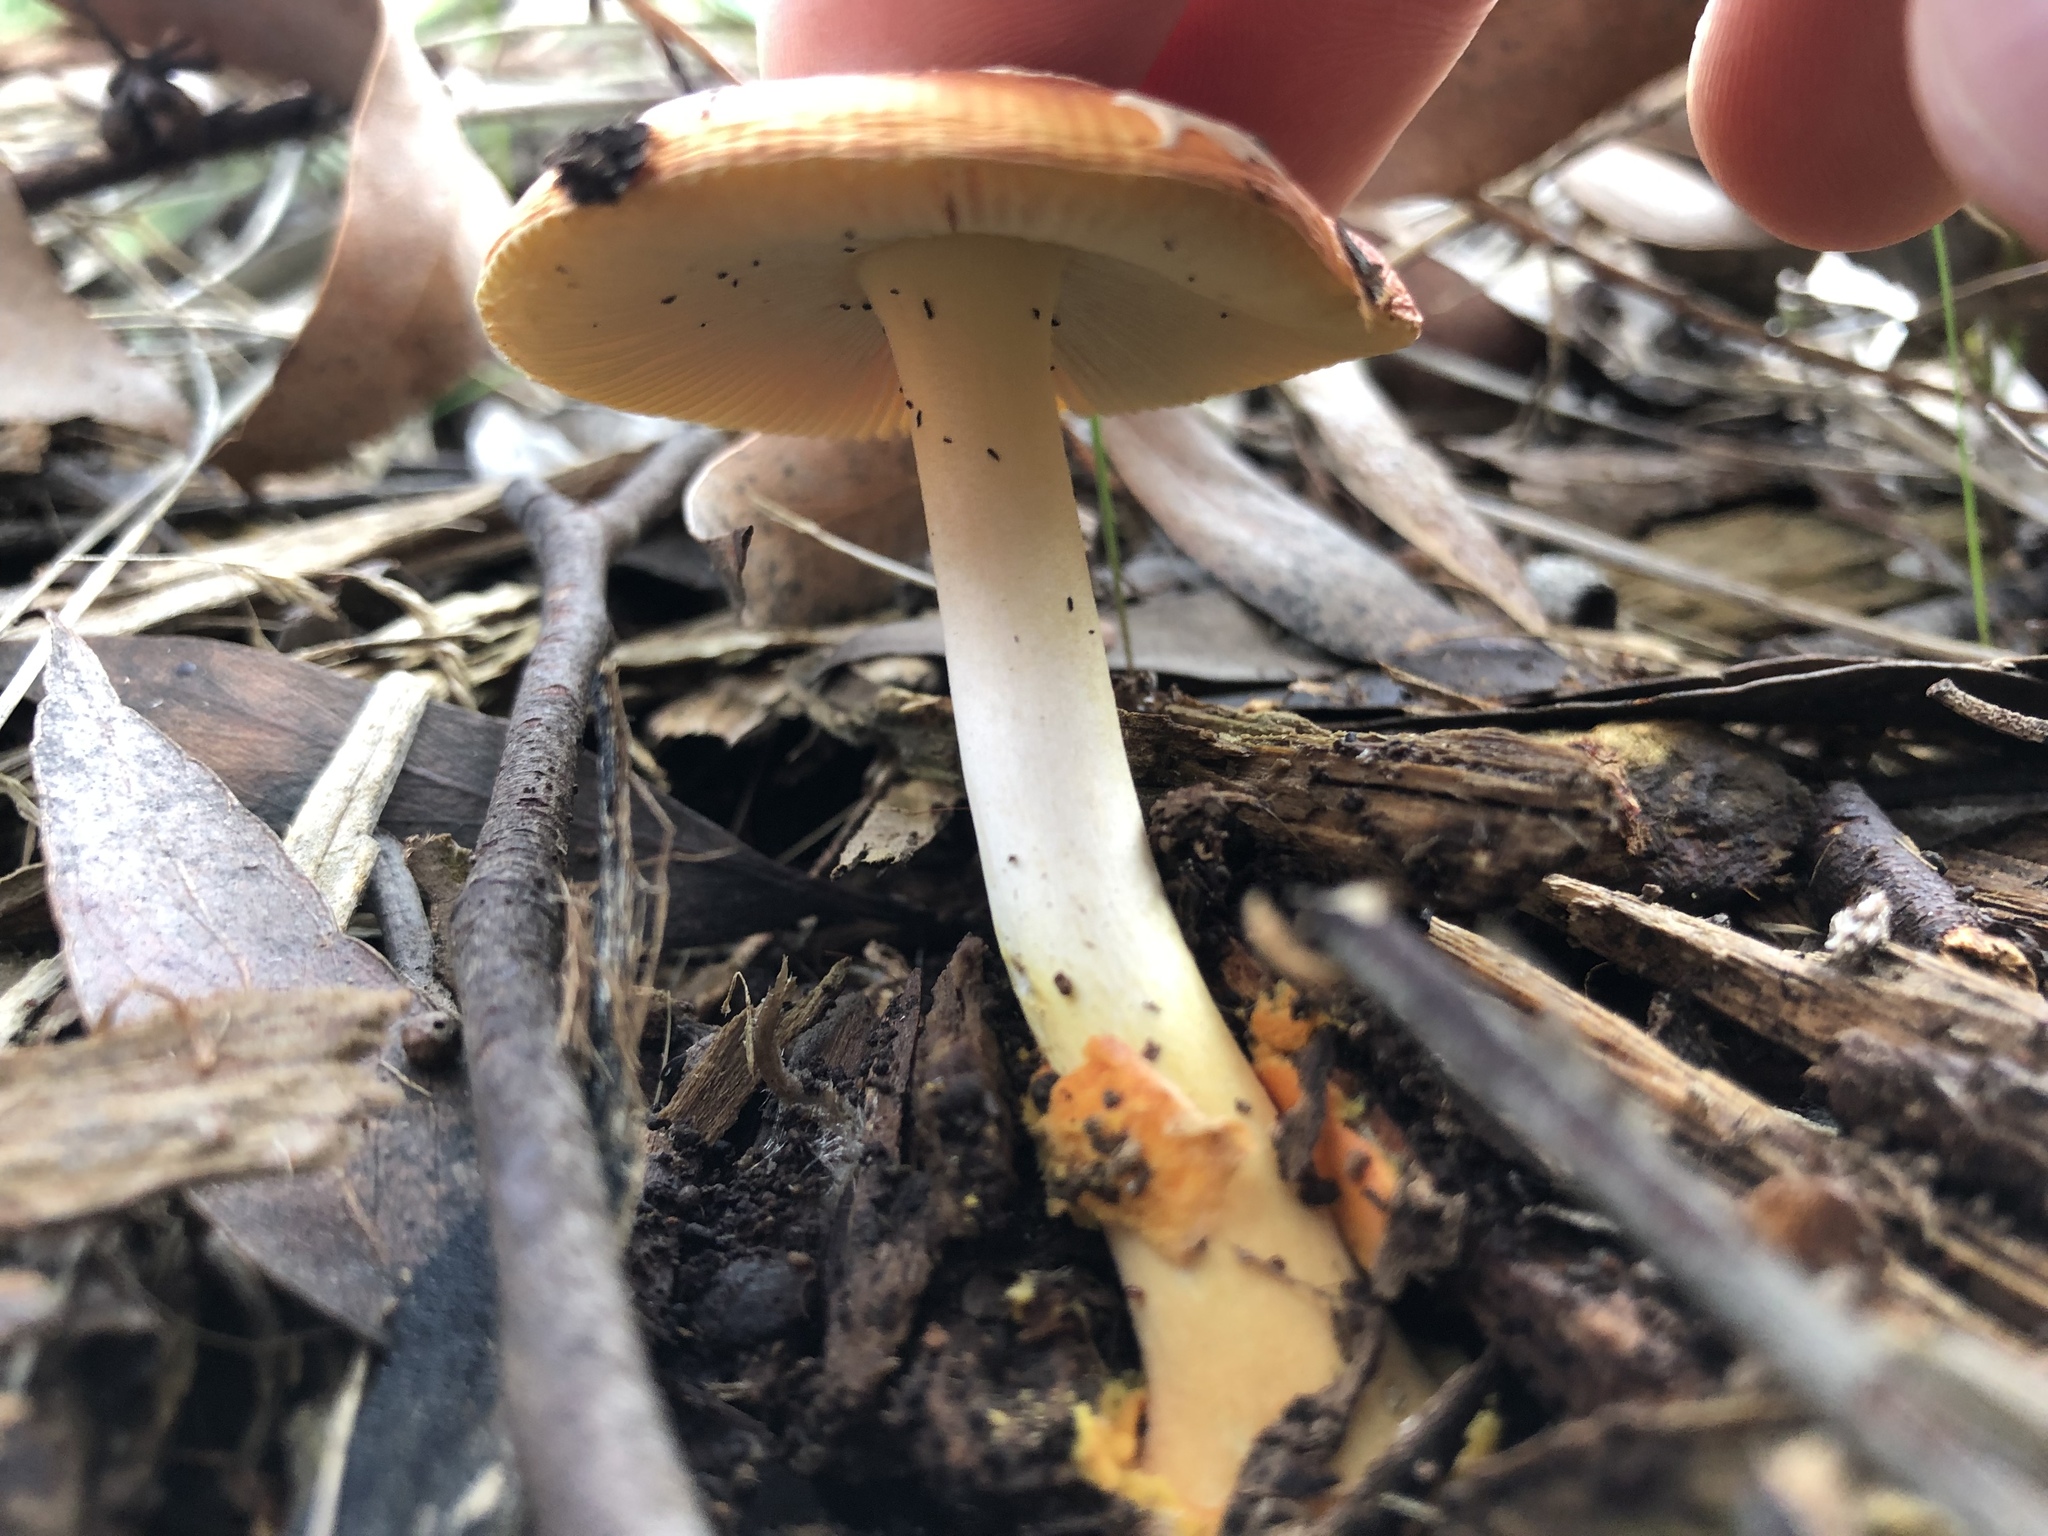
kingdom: Fungi
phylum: Basidiomycota
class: Agaricomycetes
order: Agaricales
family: Amanitaceae
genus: Amanita
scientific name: Amanita xanthocephala
